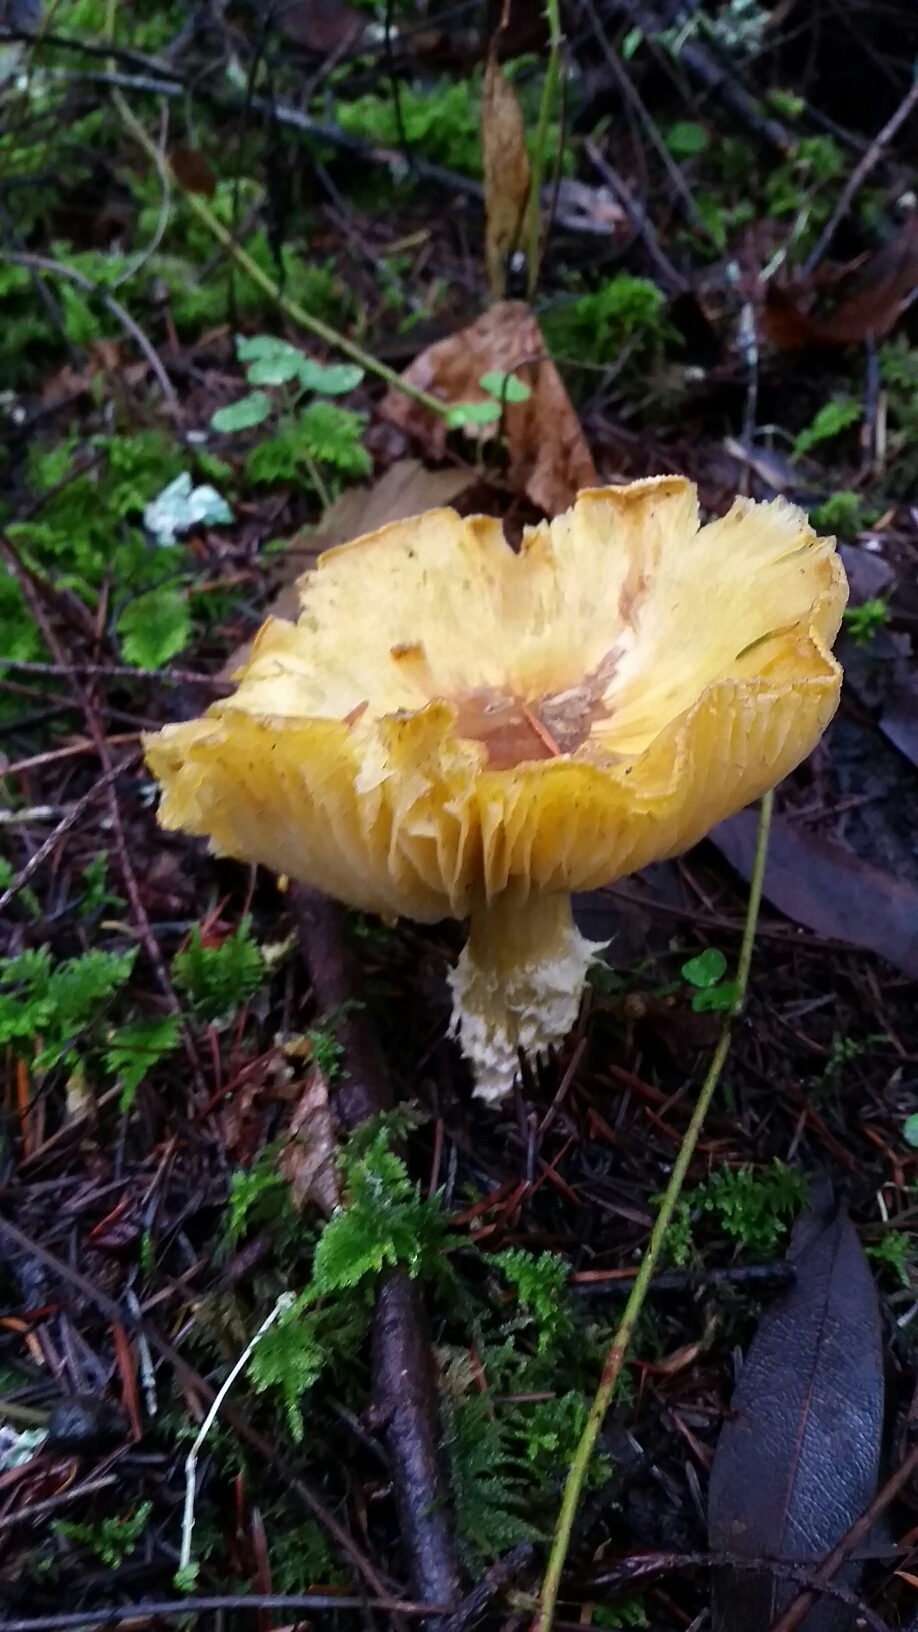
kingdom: Fungi
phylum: Basidiomycota
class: Agaricomycetes
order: Agaricales
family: Agaricaceae
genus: Floccularia
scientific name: Floccularia albolanaripes
